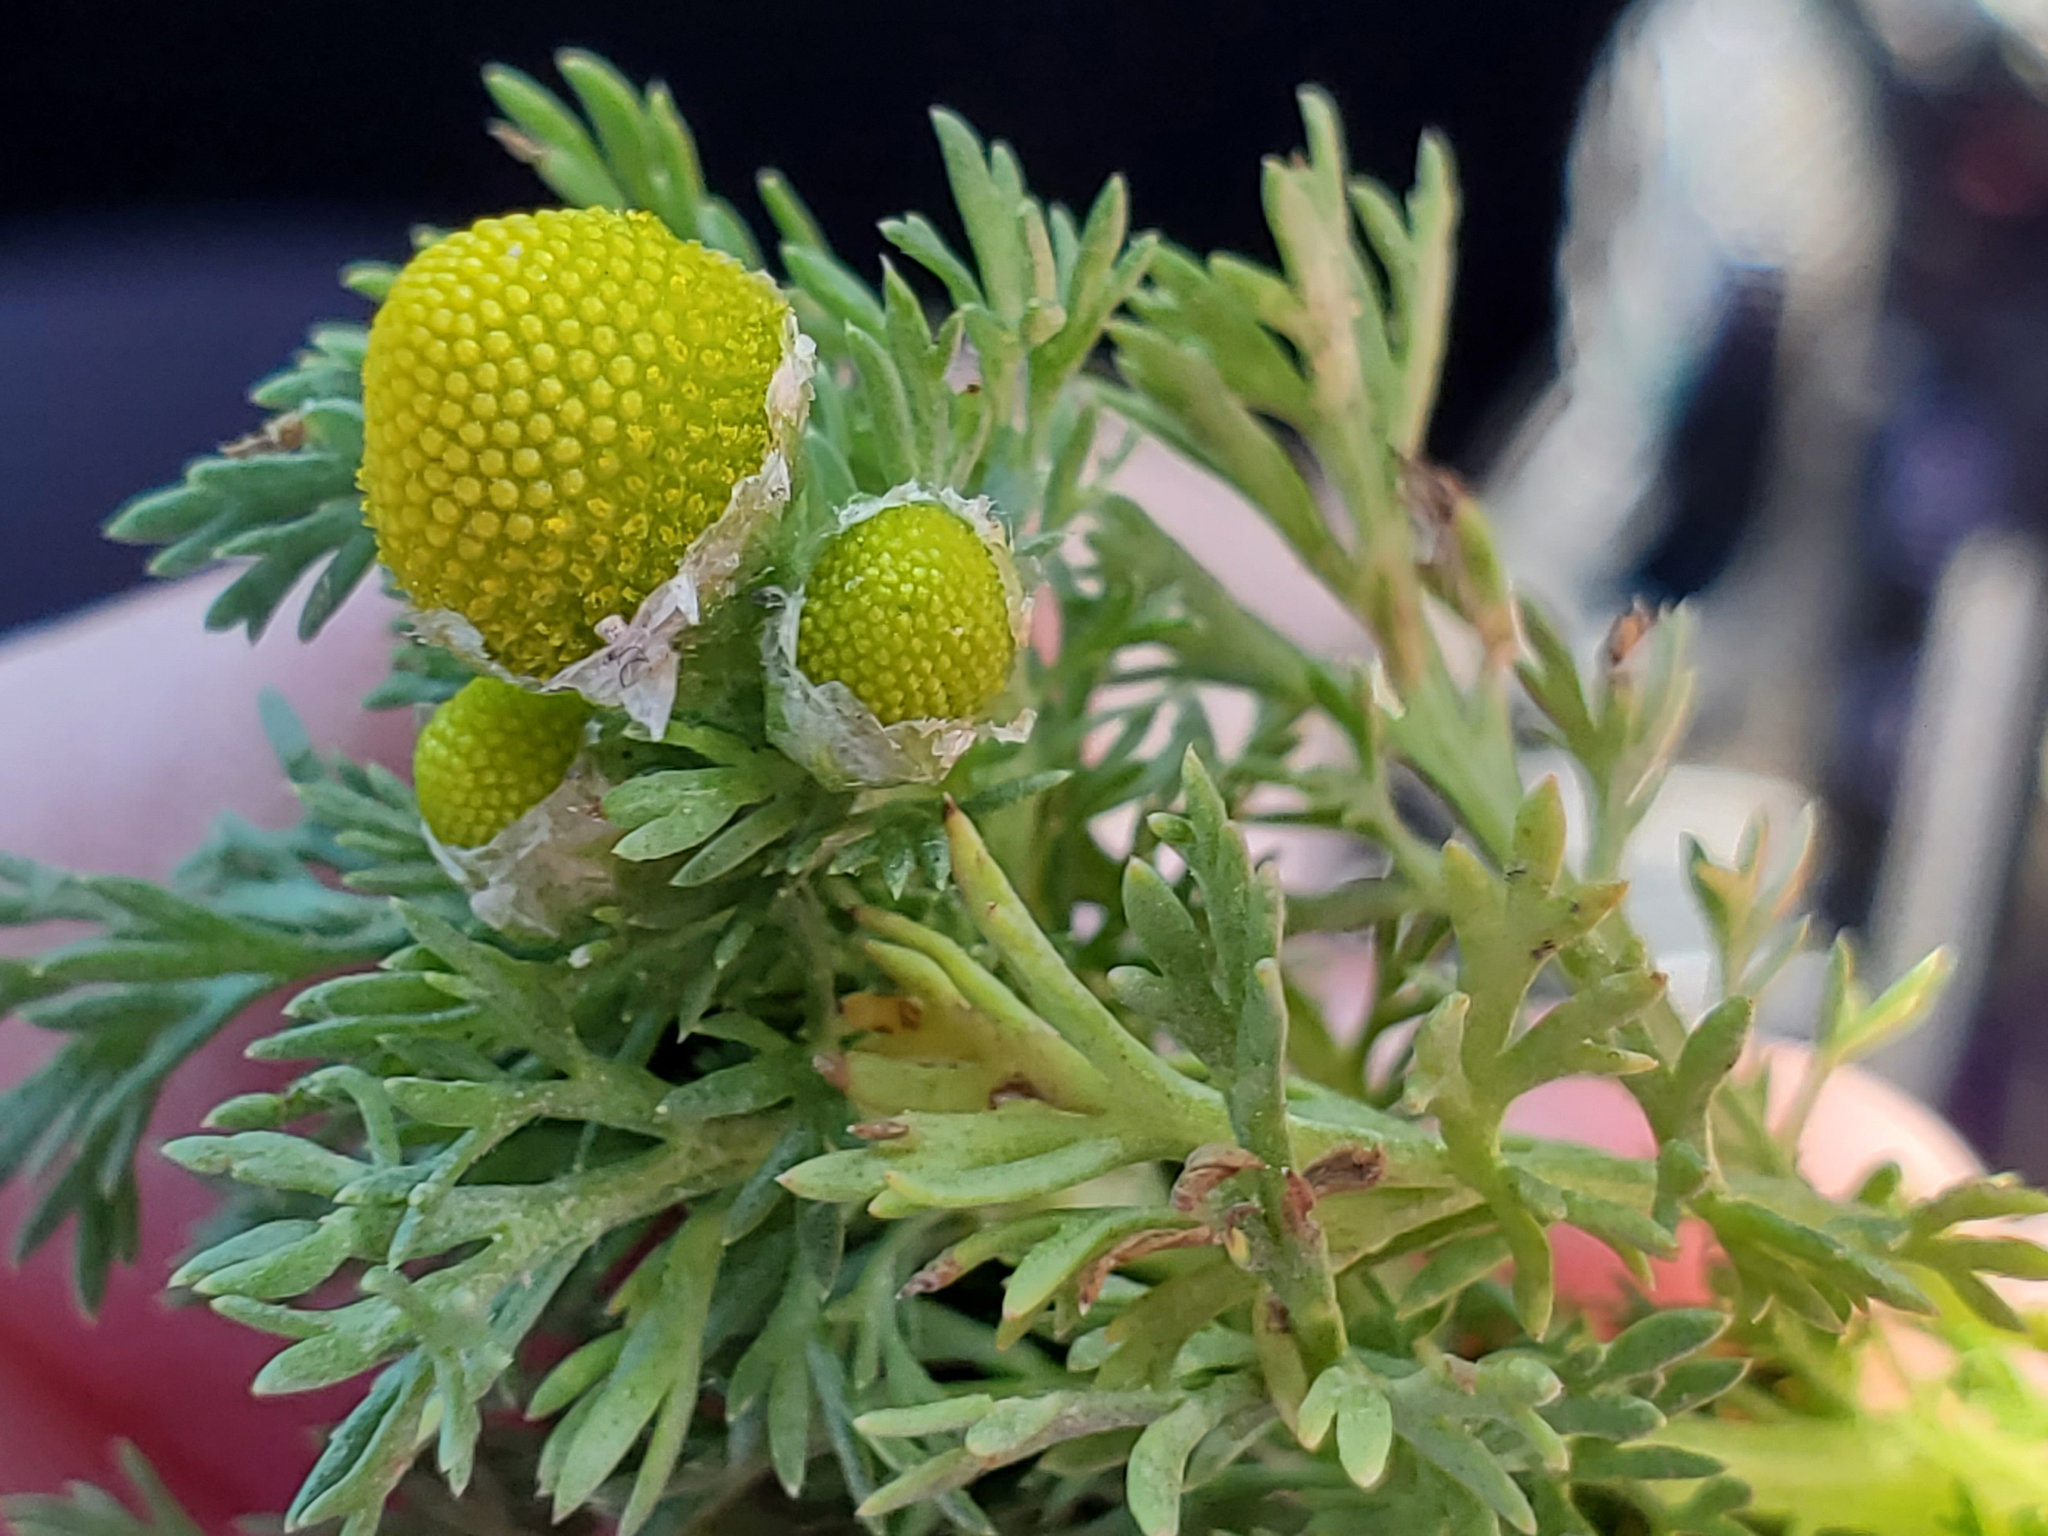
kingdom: Plantae
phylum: Tracheophyta
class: Magnoliopsida
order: Asterales
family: Asteraceae
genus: Matricaria
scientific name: Matricaria discoidea
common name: Disc mayweed
